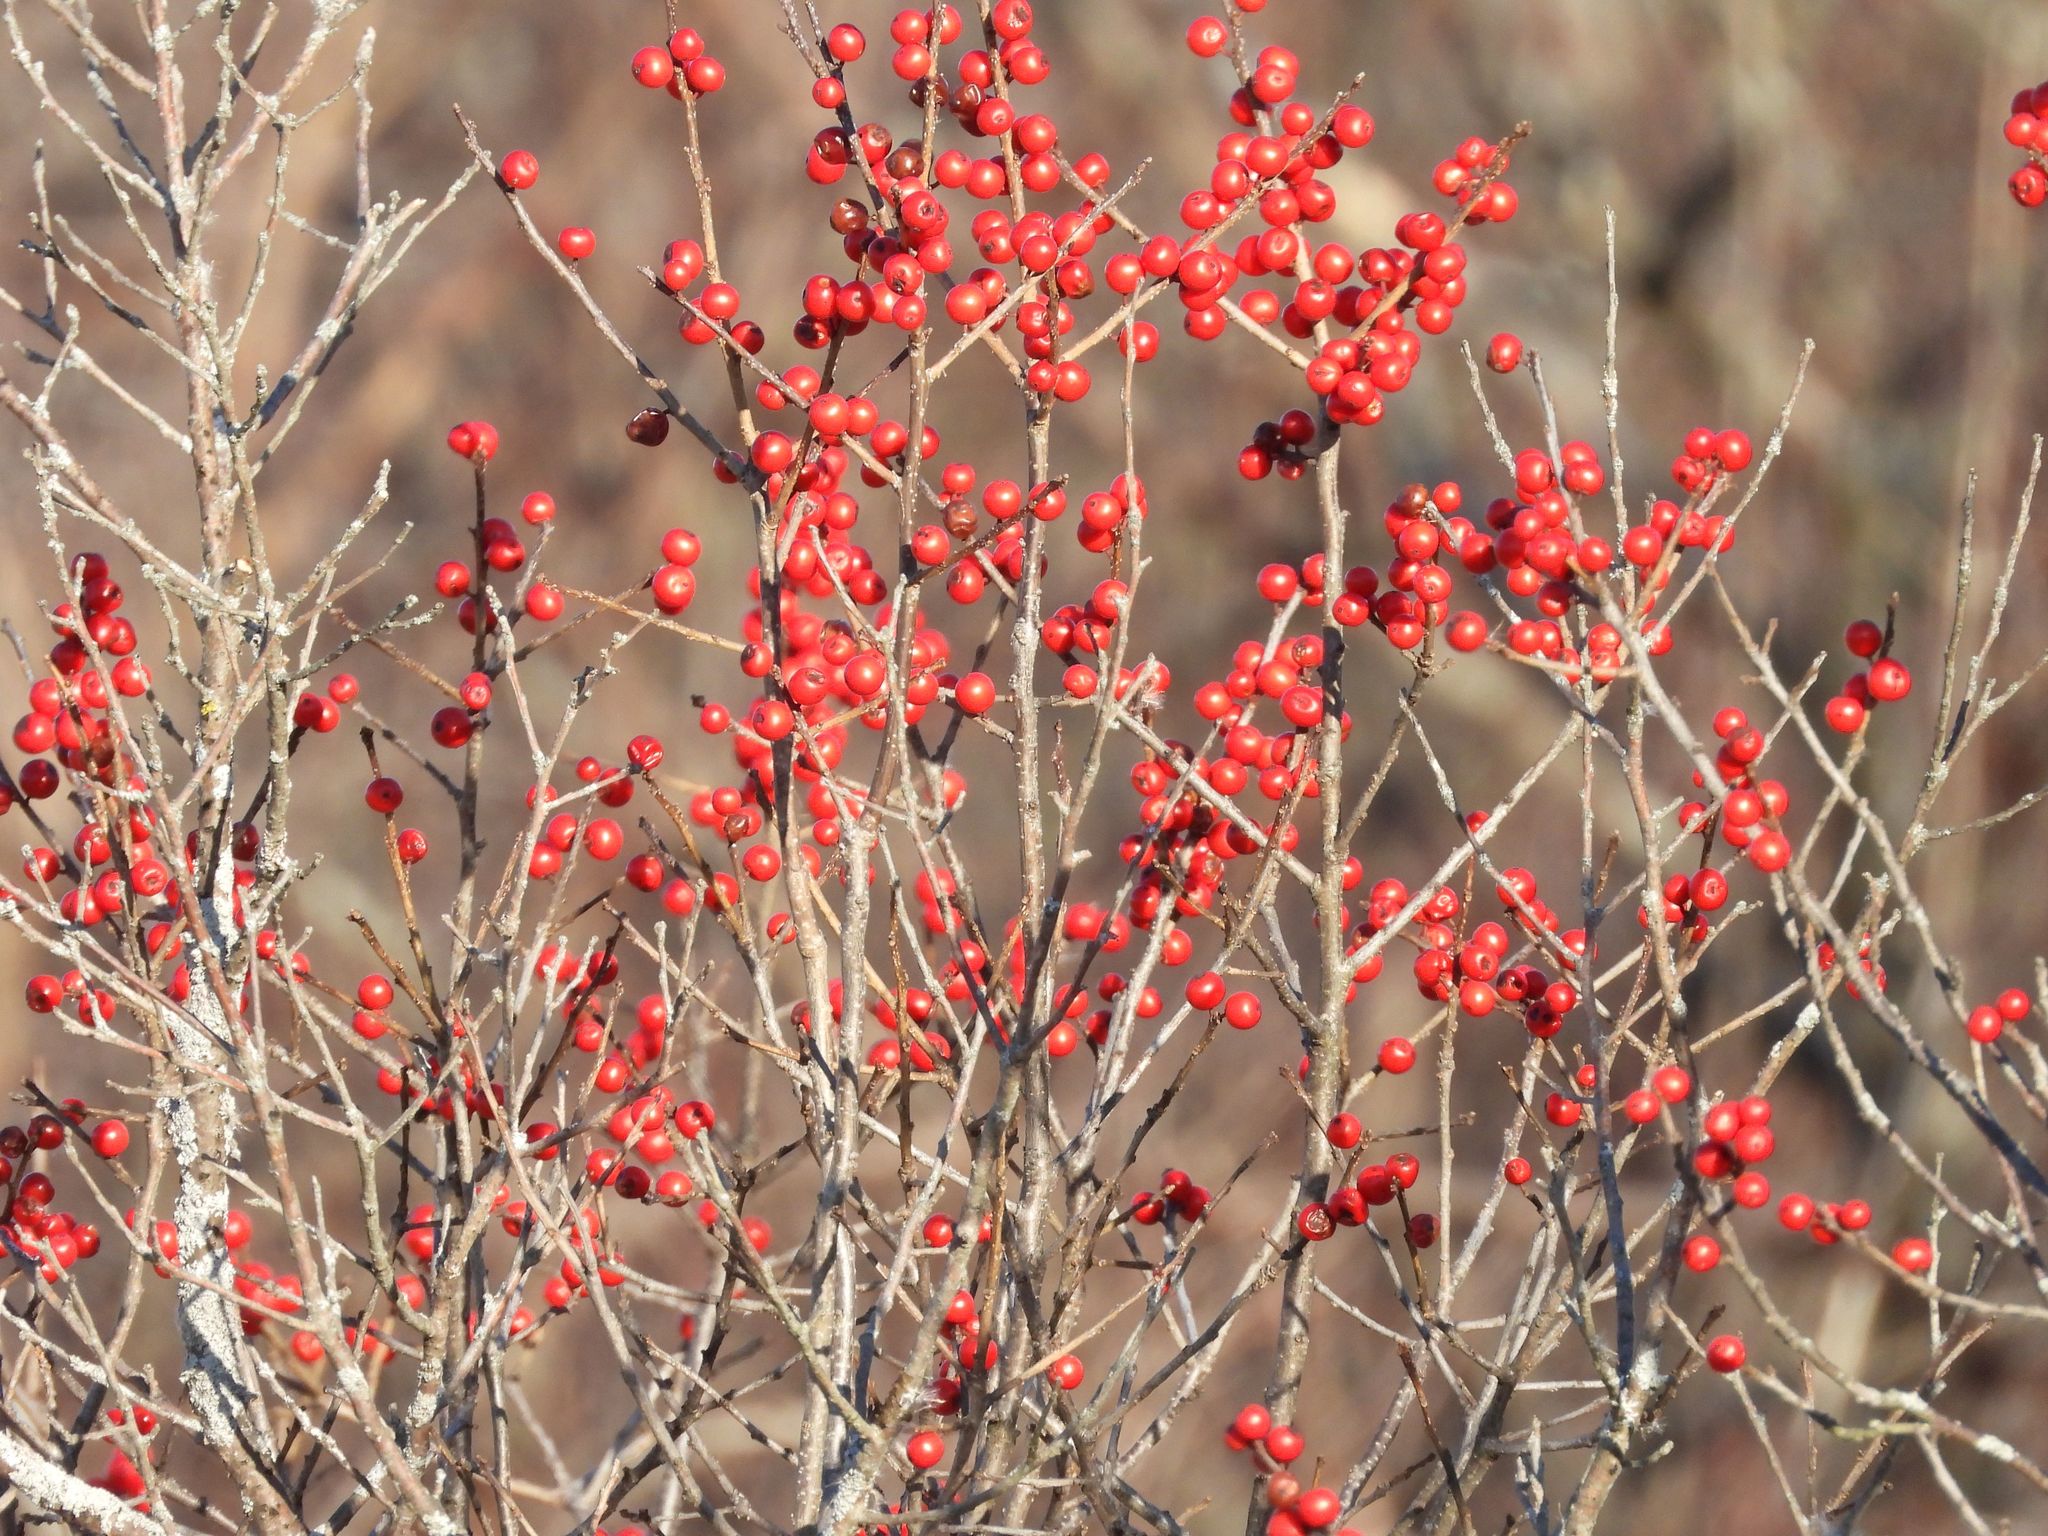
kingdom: Plantae
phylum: Tracheophyta
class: Magnoliopsida
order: Aquifoliales
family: Aquifoliaceae
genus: Ilex
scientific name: Ilex verticillata
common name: Virginia winterberry
